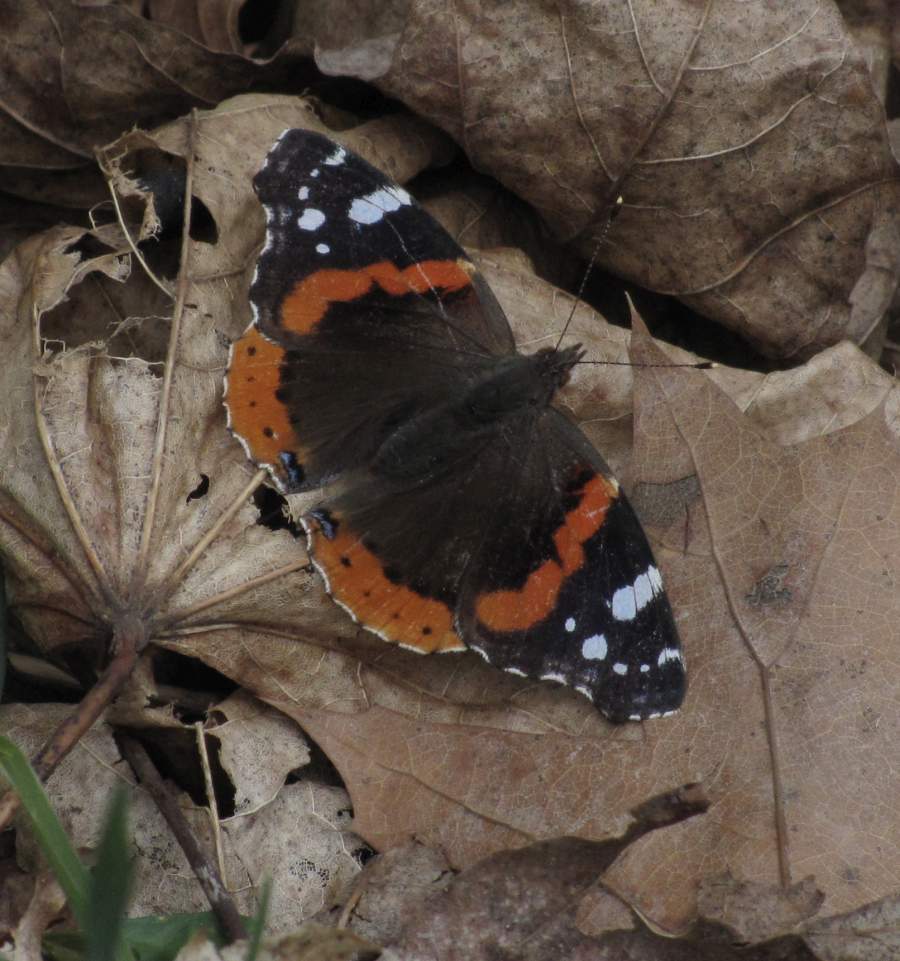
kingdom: Animalia
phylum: Arthropoda
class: Insecta
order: Lepidoptera
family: Nymphalidae
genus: Vanessa
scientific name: Vanessa atalanta
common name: Red admiral
